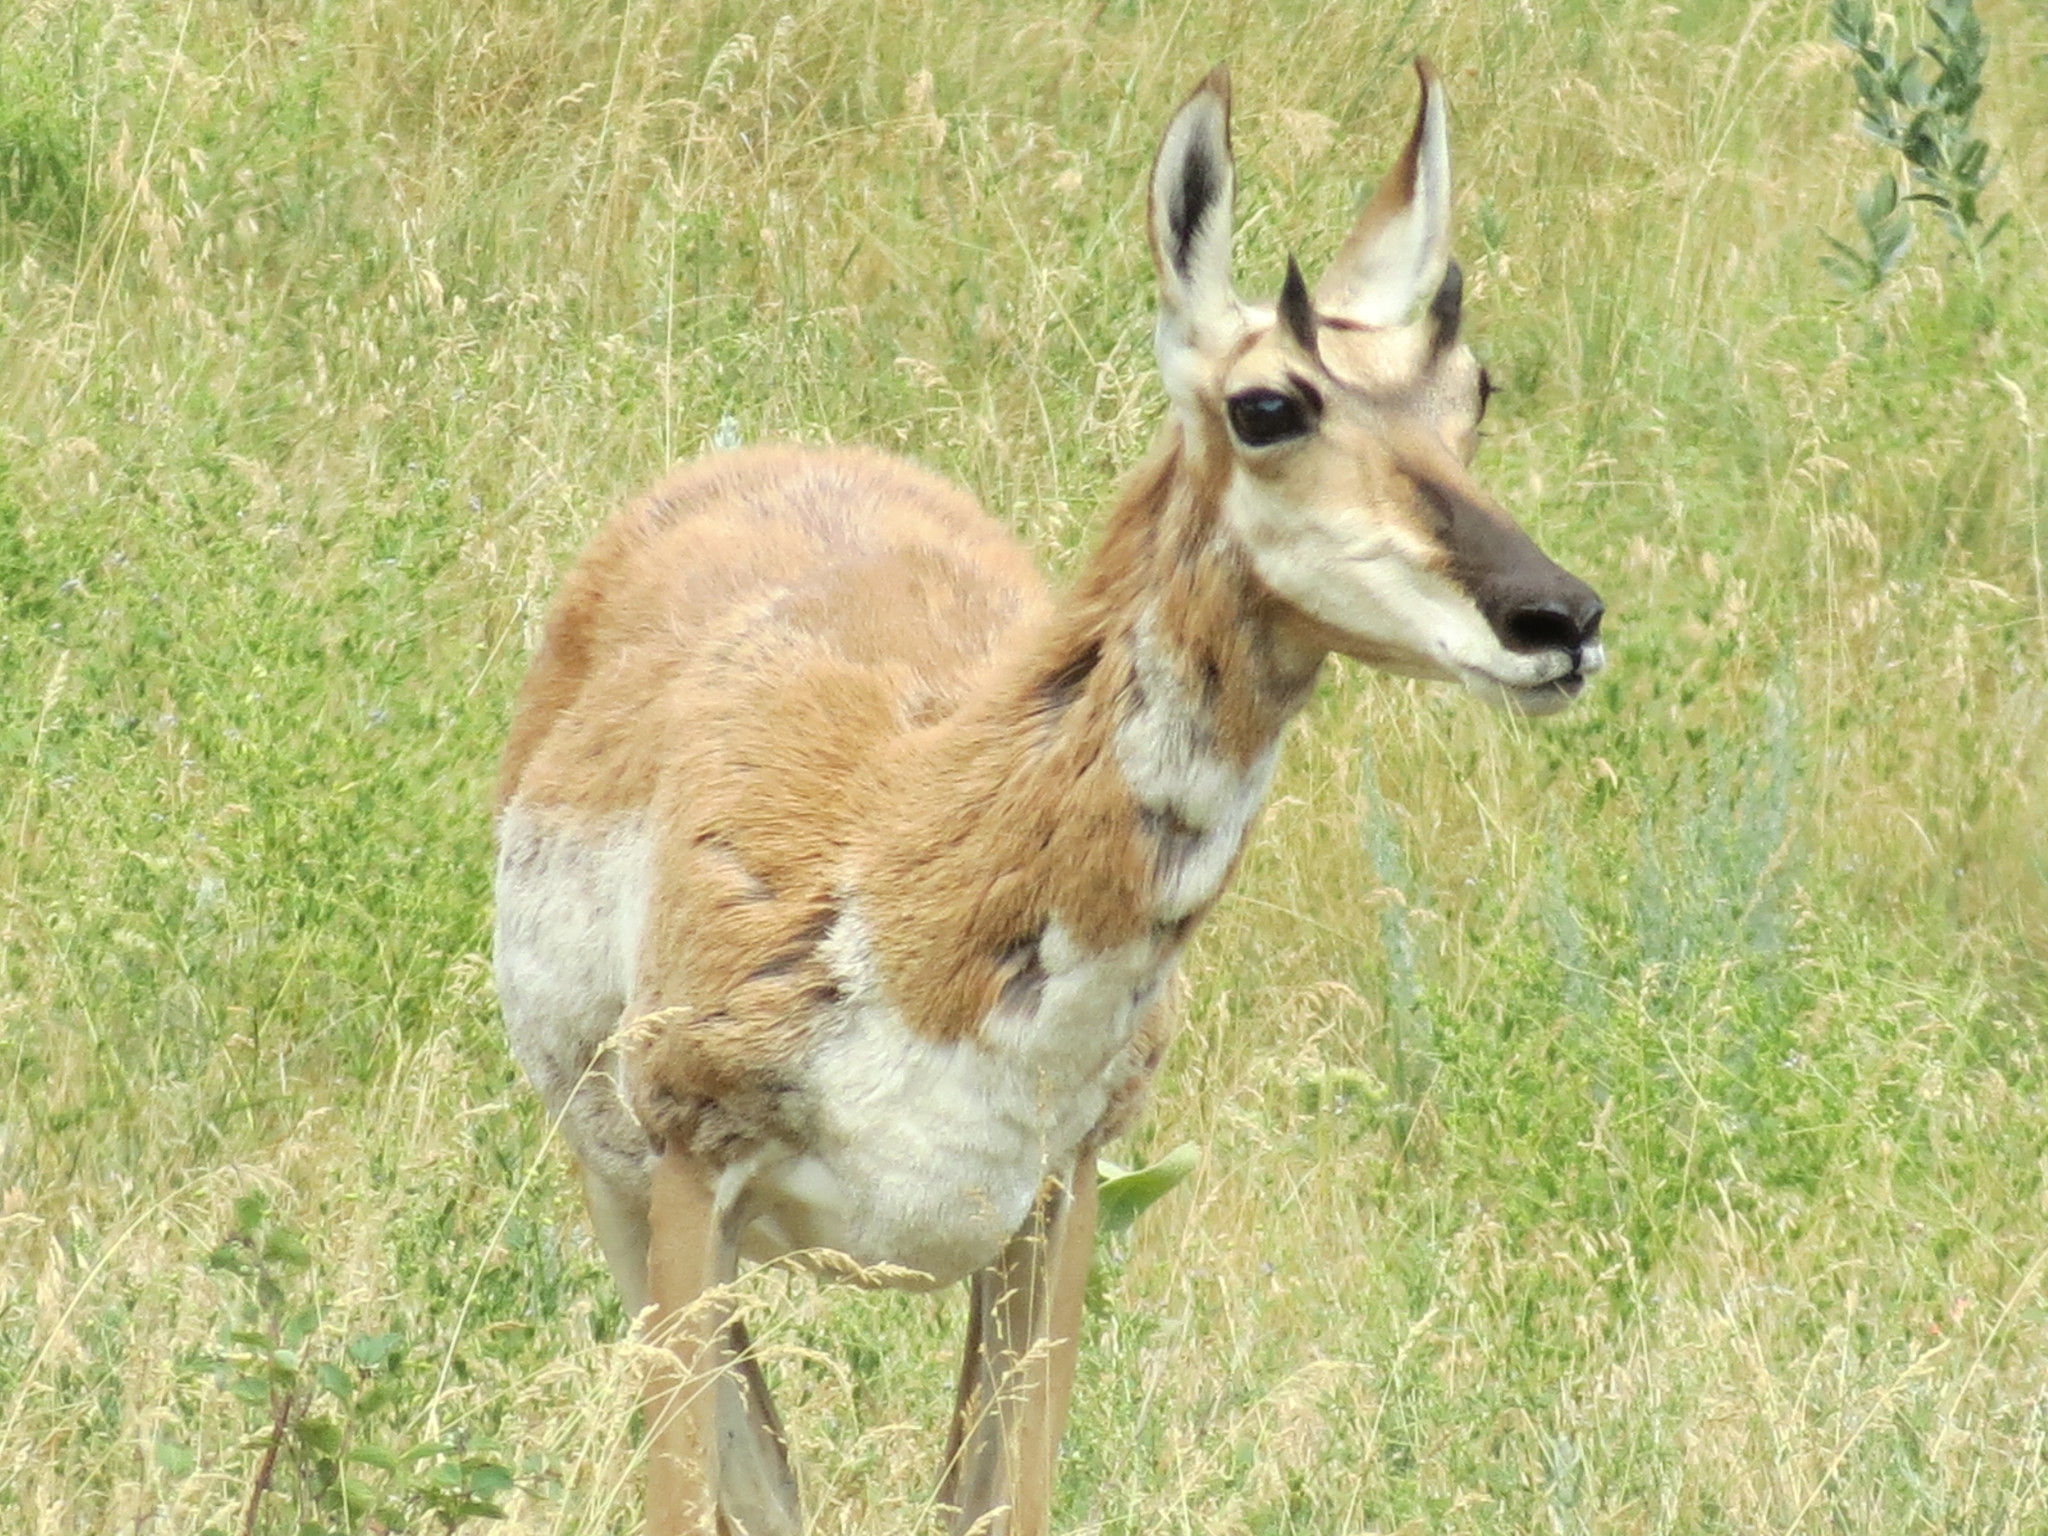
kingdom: Animalia
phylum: Chordata
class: Mammalia
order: Artiodactyla
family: Antilocapridae
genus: Antilocapra
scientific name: Antilocapra americana
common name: Pronghorn
